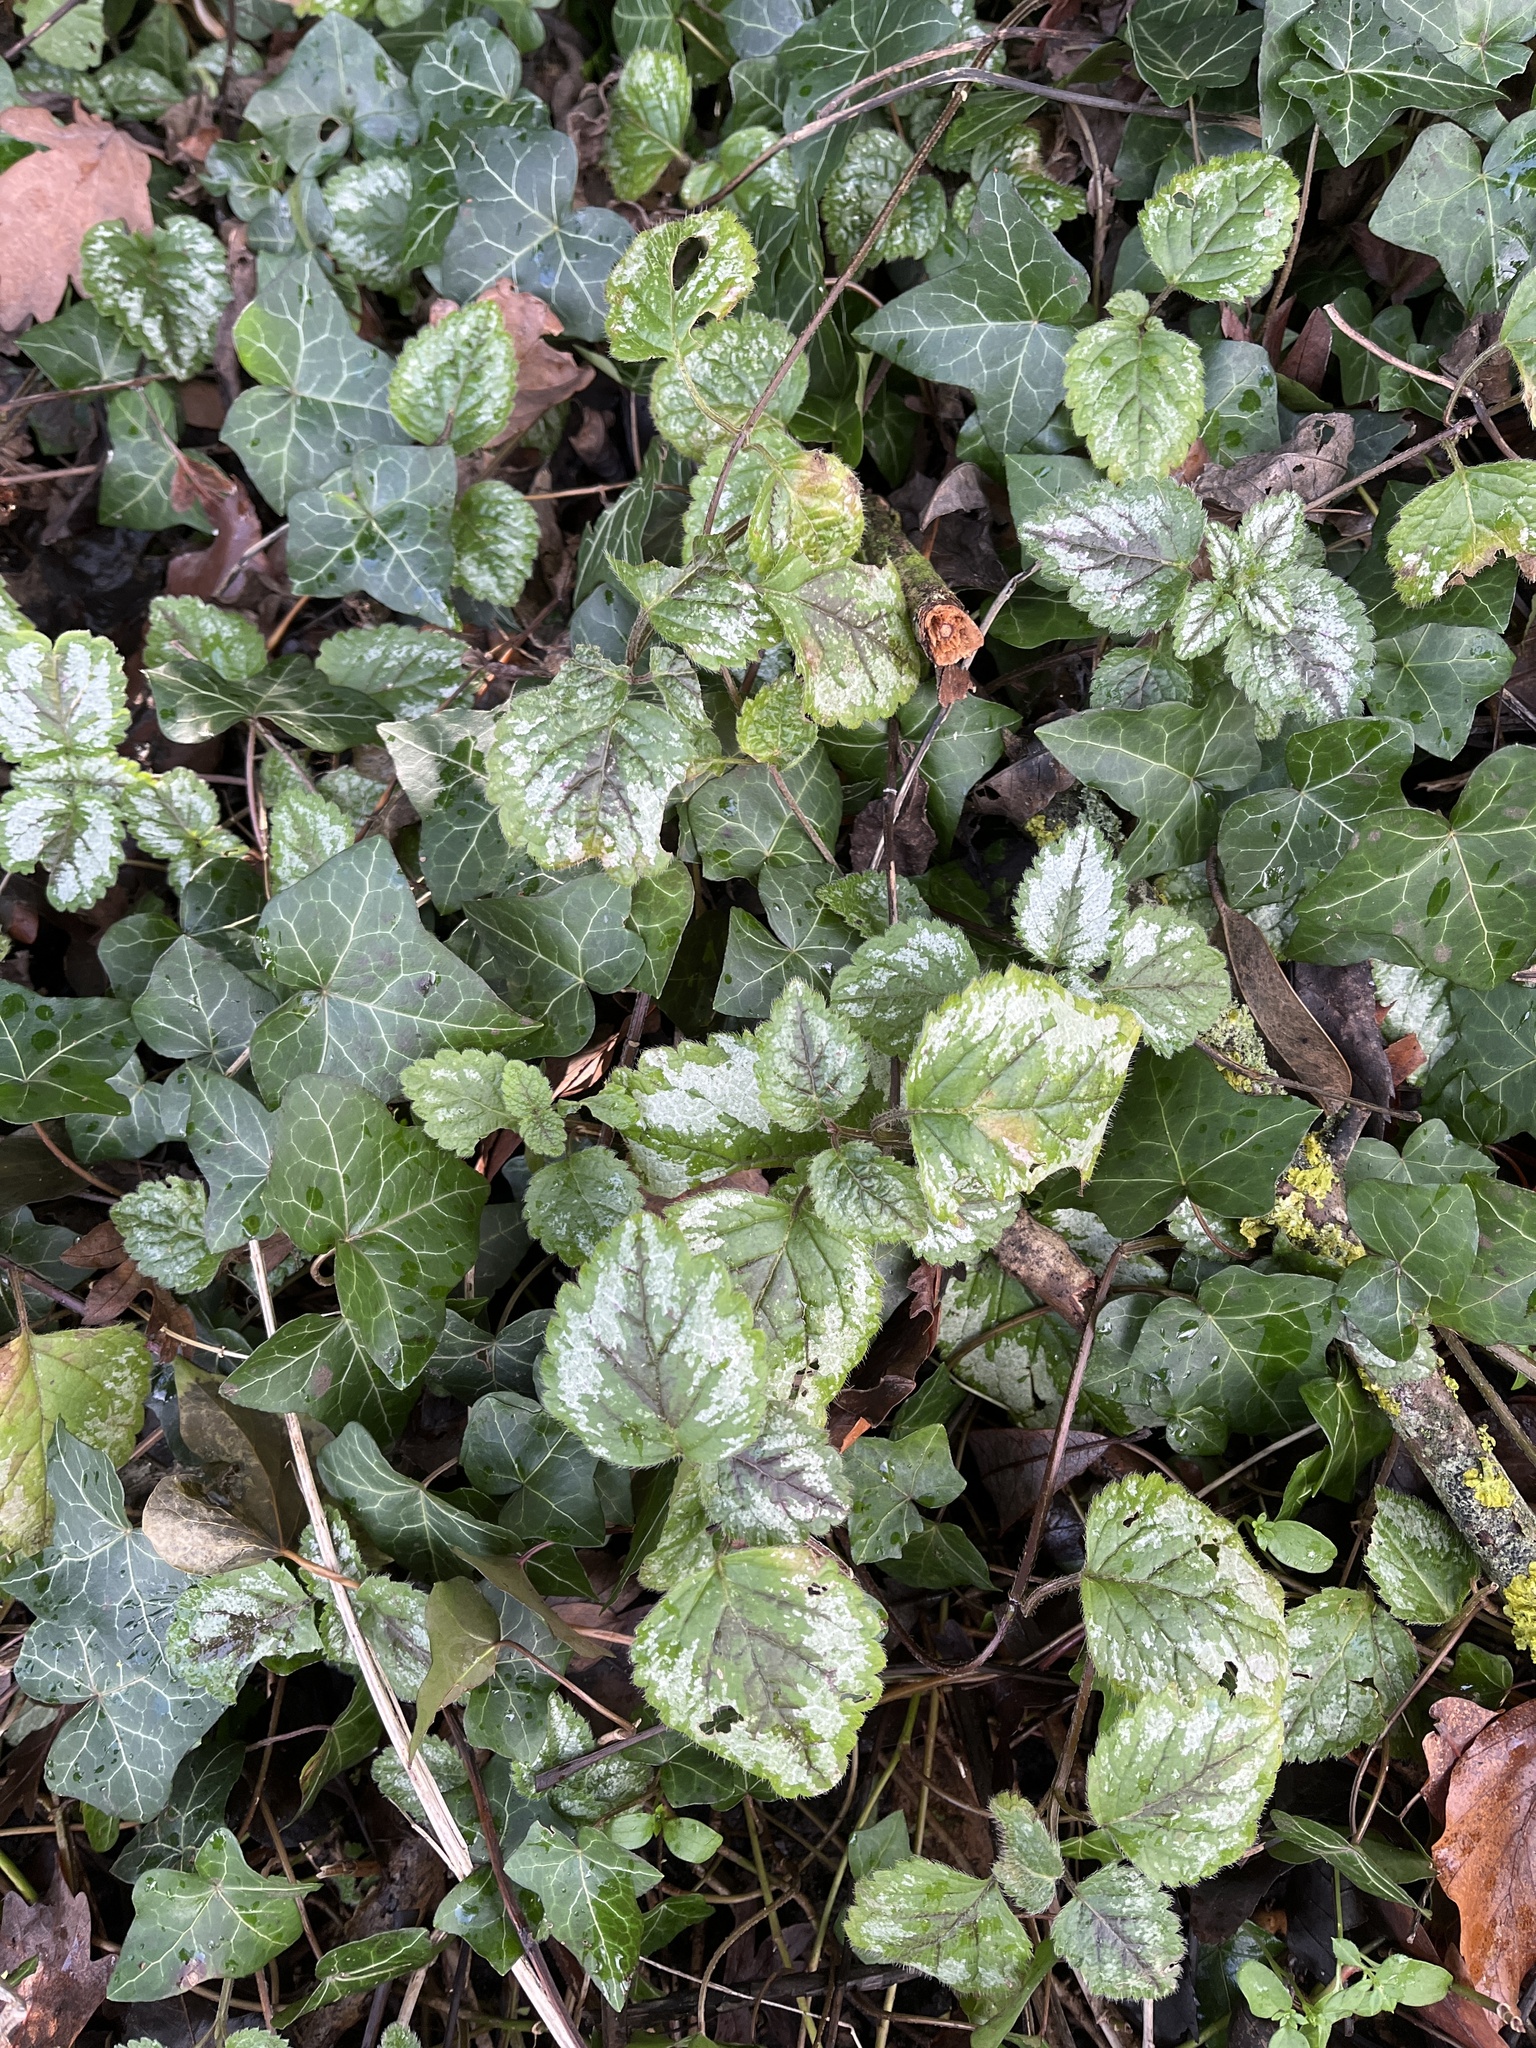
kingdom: Plantae
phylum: Tracheophyta
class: Magnoliopsida
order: Lamiales
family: Lamiaceae
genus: Lamium
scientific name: Lamium galeobdolon
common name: Yellow archangel
